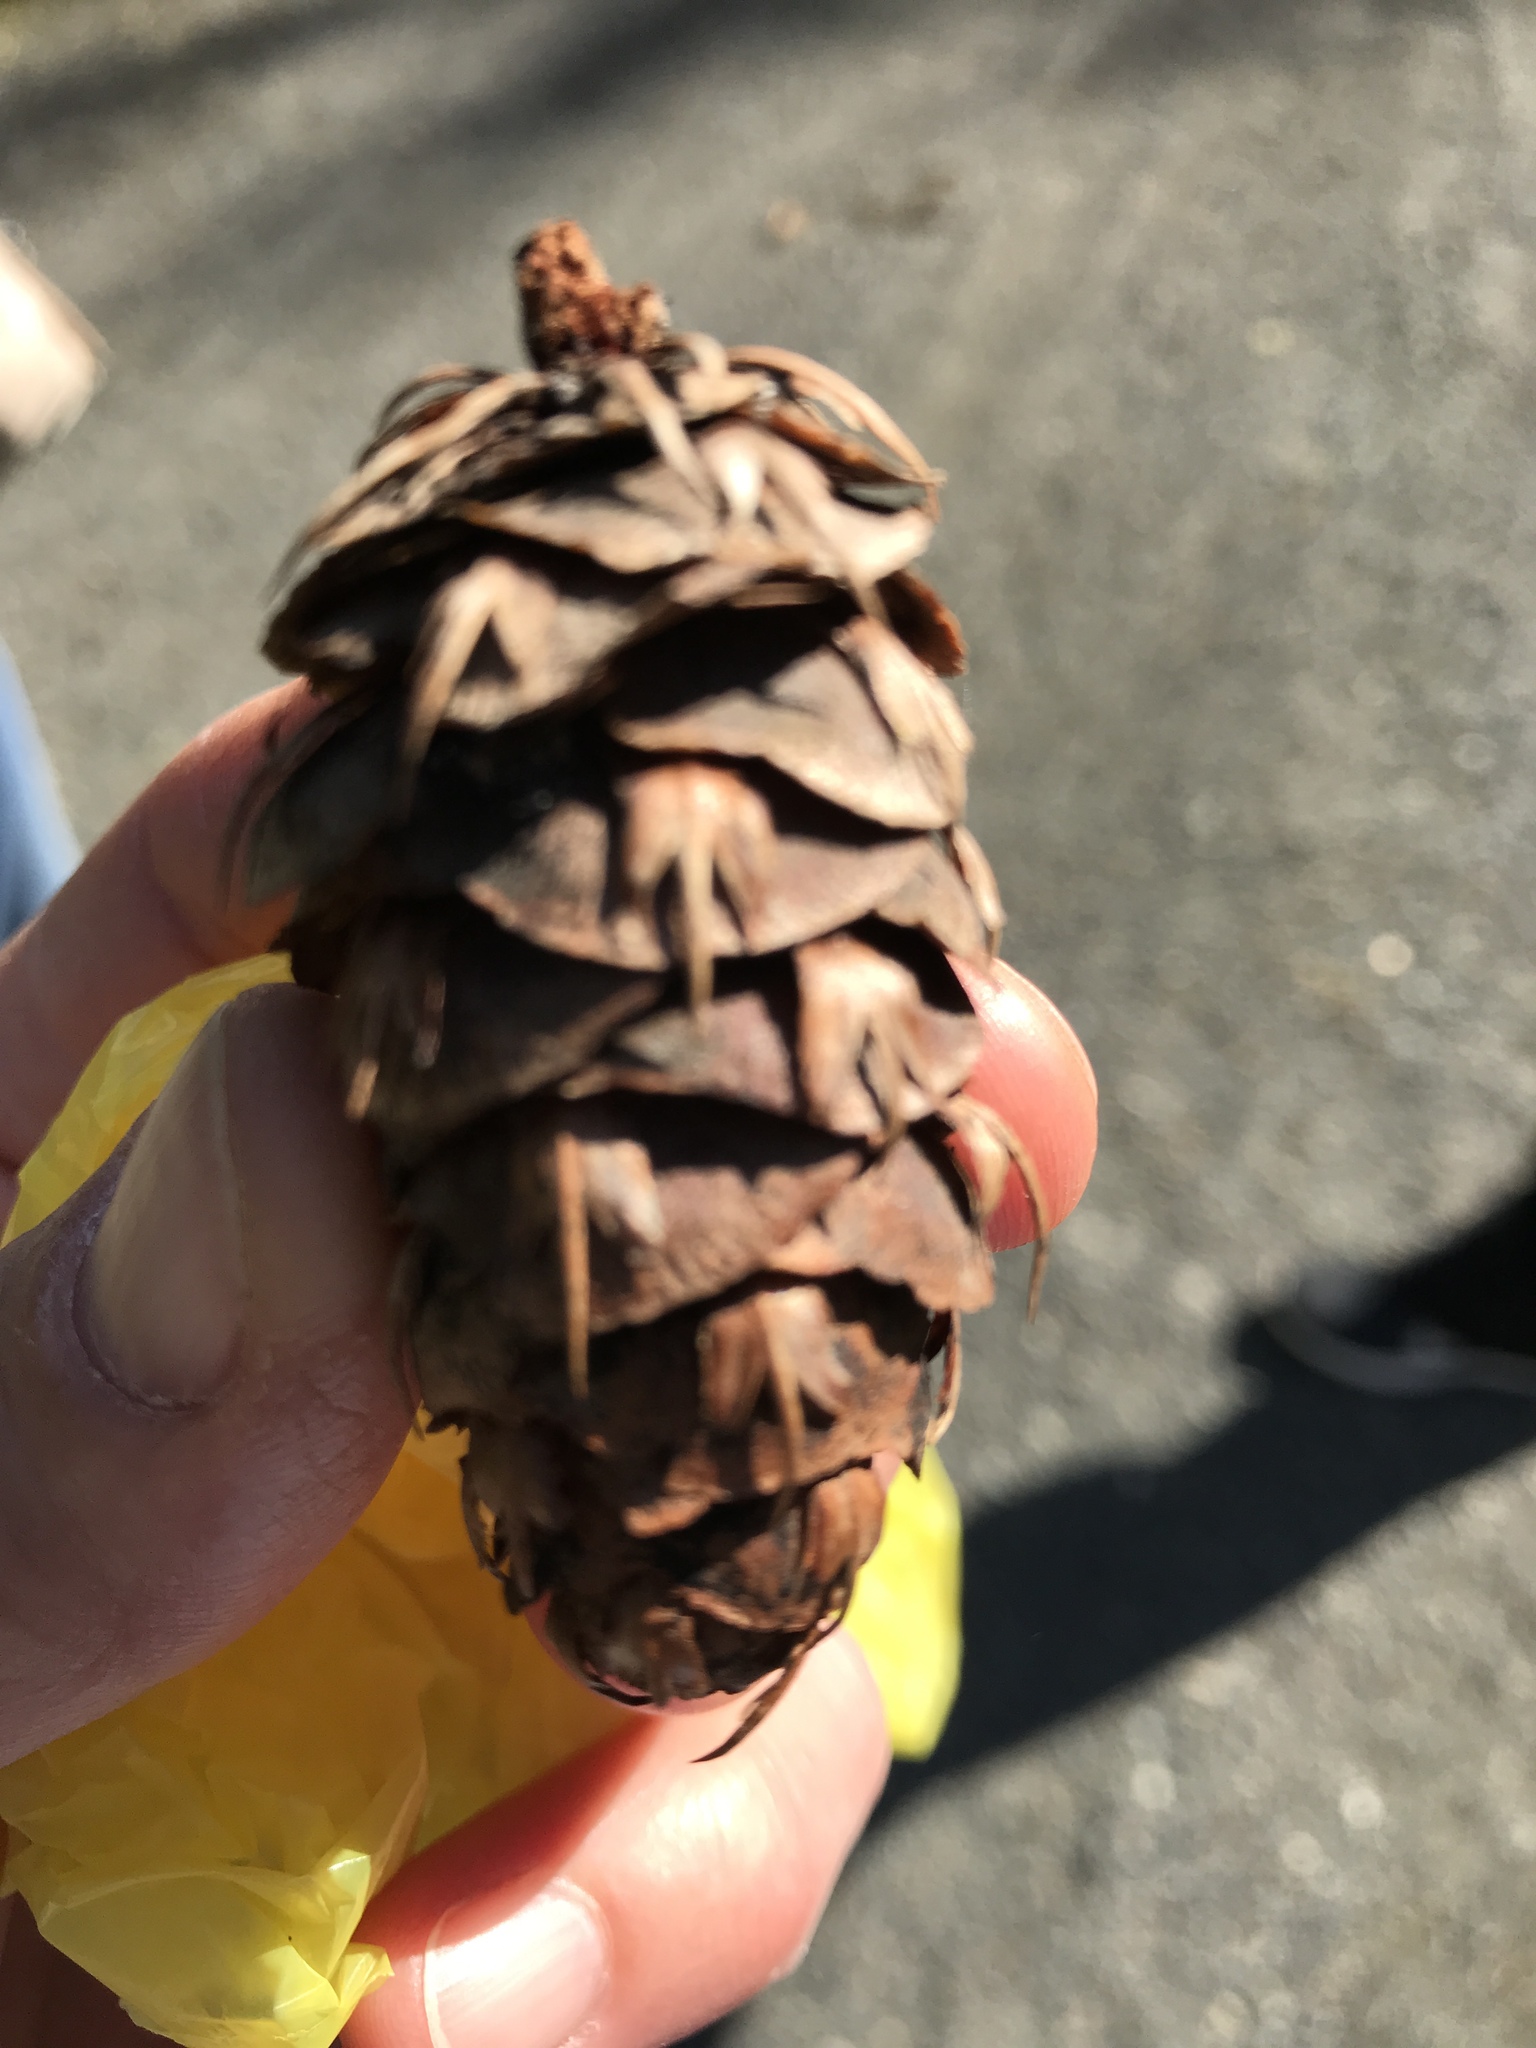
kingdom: Plantae
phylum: Tracheophyta
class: Pinopsida
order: Pinales
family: Pinaceae
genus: Pseudotsuga
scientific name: Pseudotsuga menziesii
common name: Douglas fir
